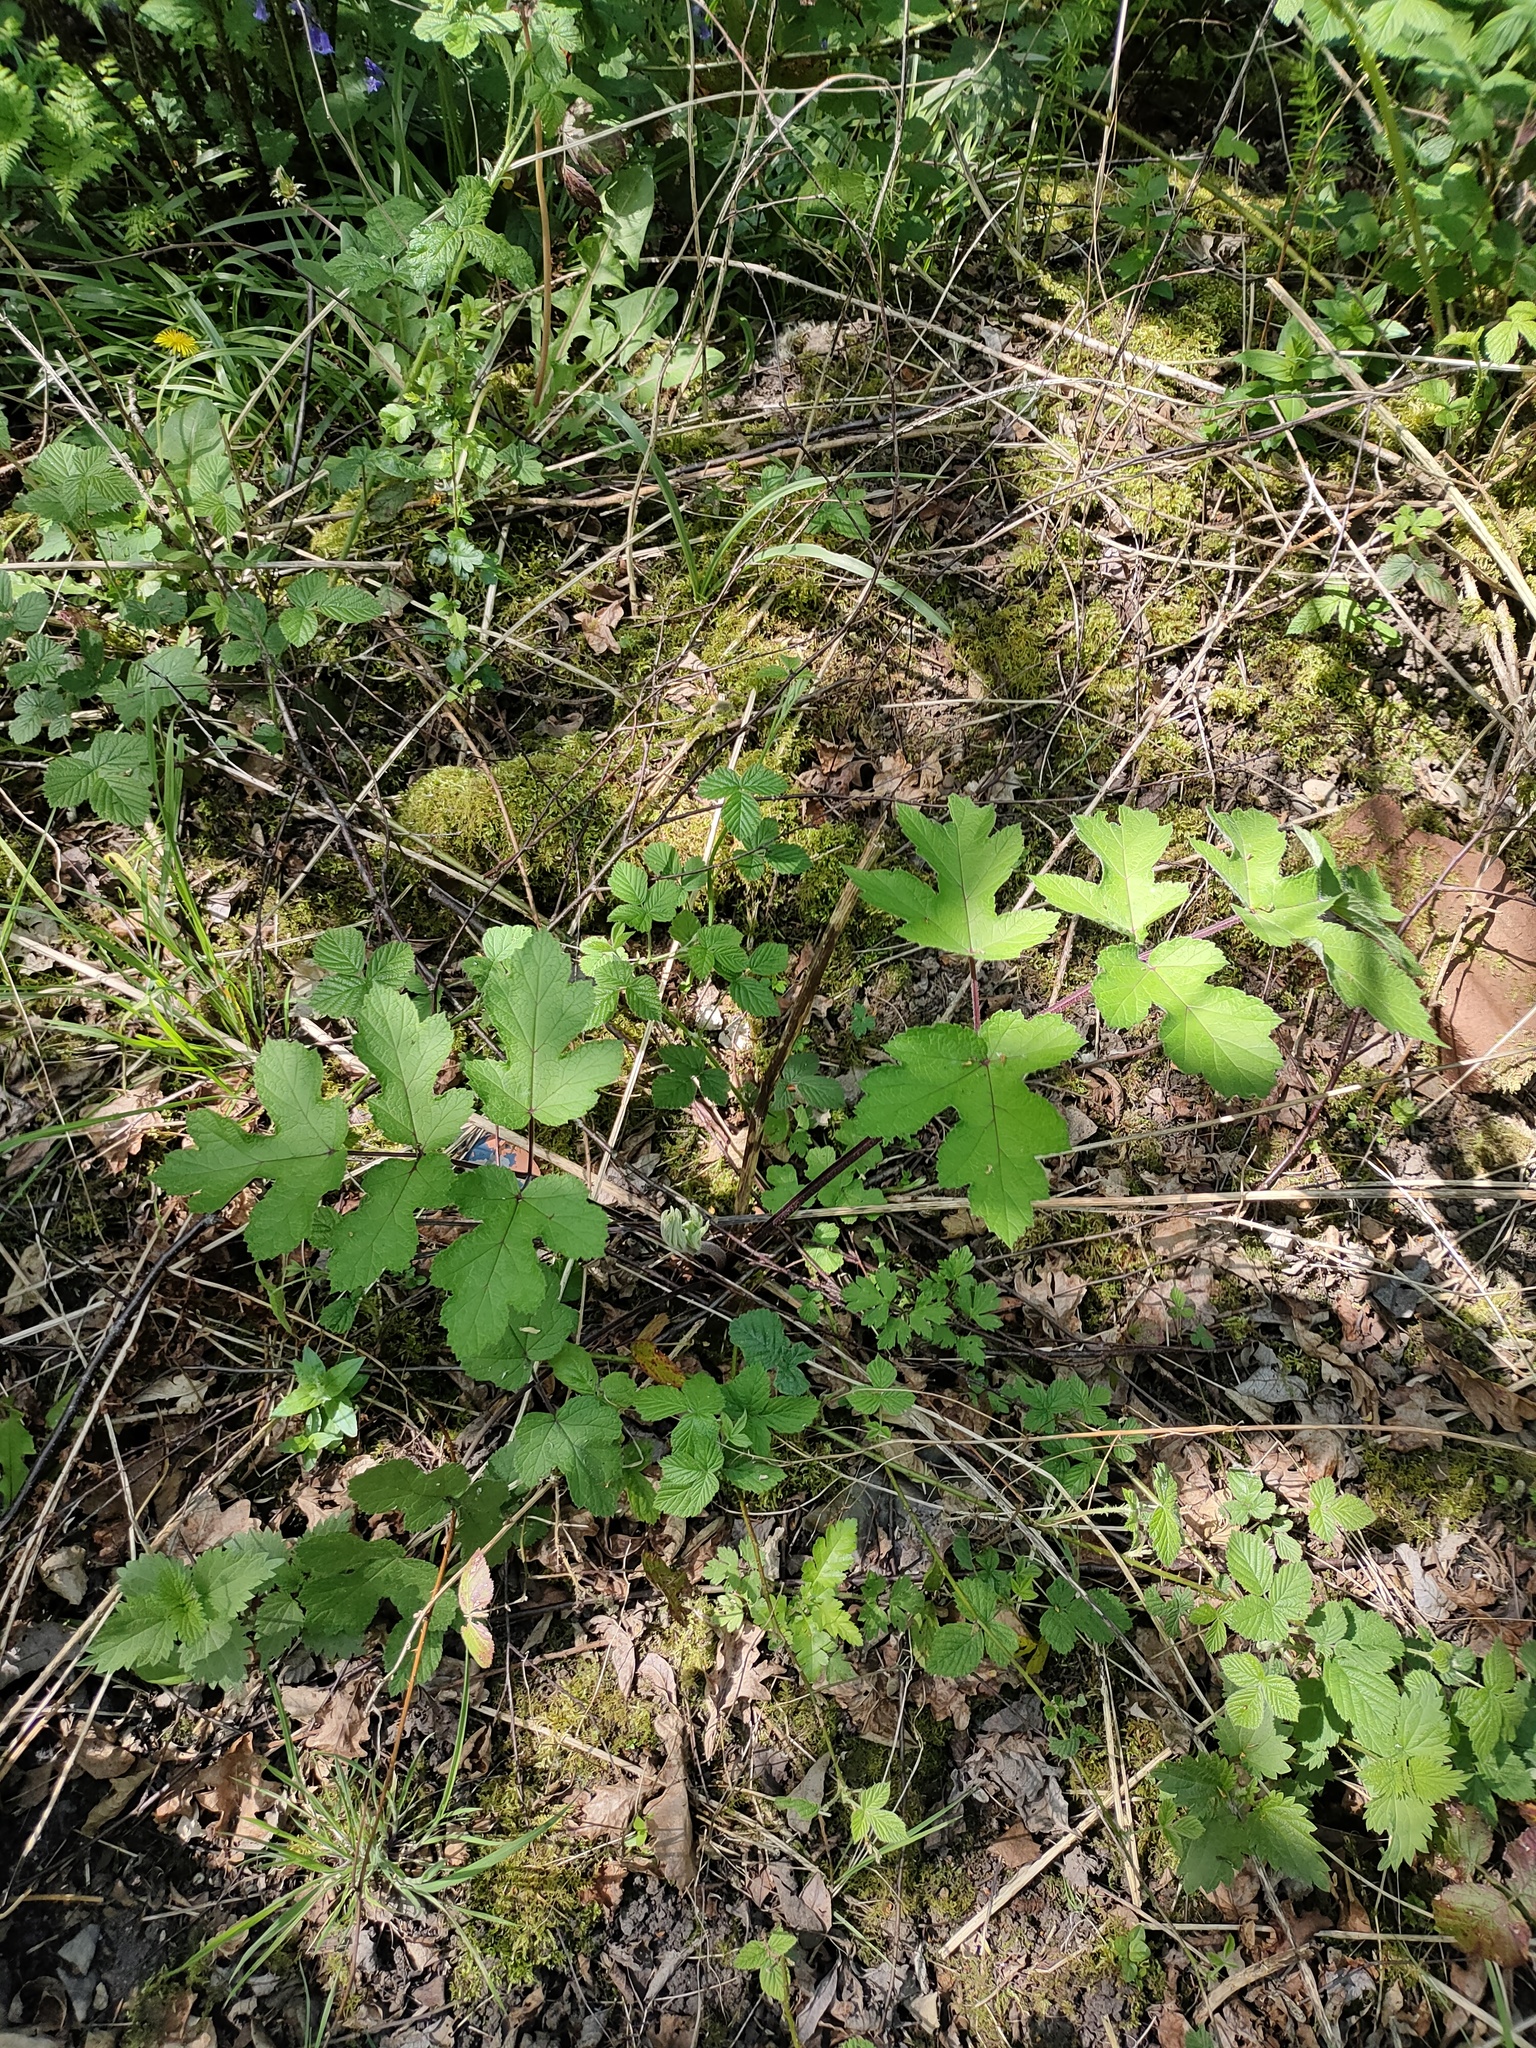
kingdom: Plantae
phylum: Tracheophyta
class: Magnoliopsida
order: Apiales
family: Apiaceae
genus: Heracleum
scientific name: Heracleum sphondylium
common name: Hogweed
